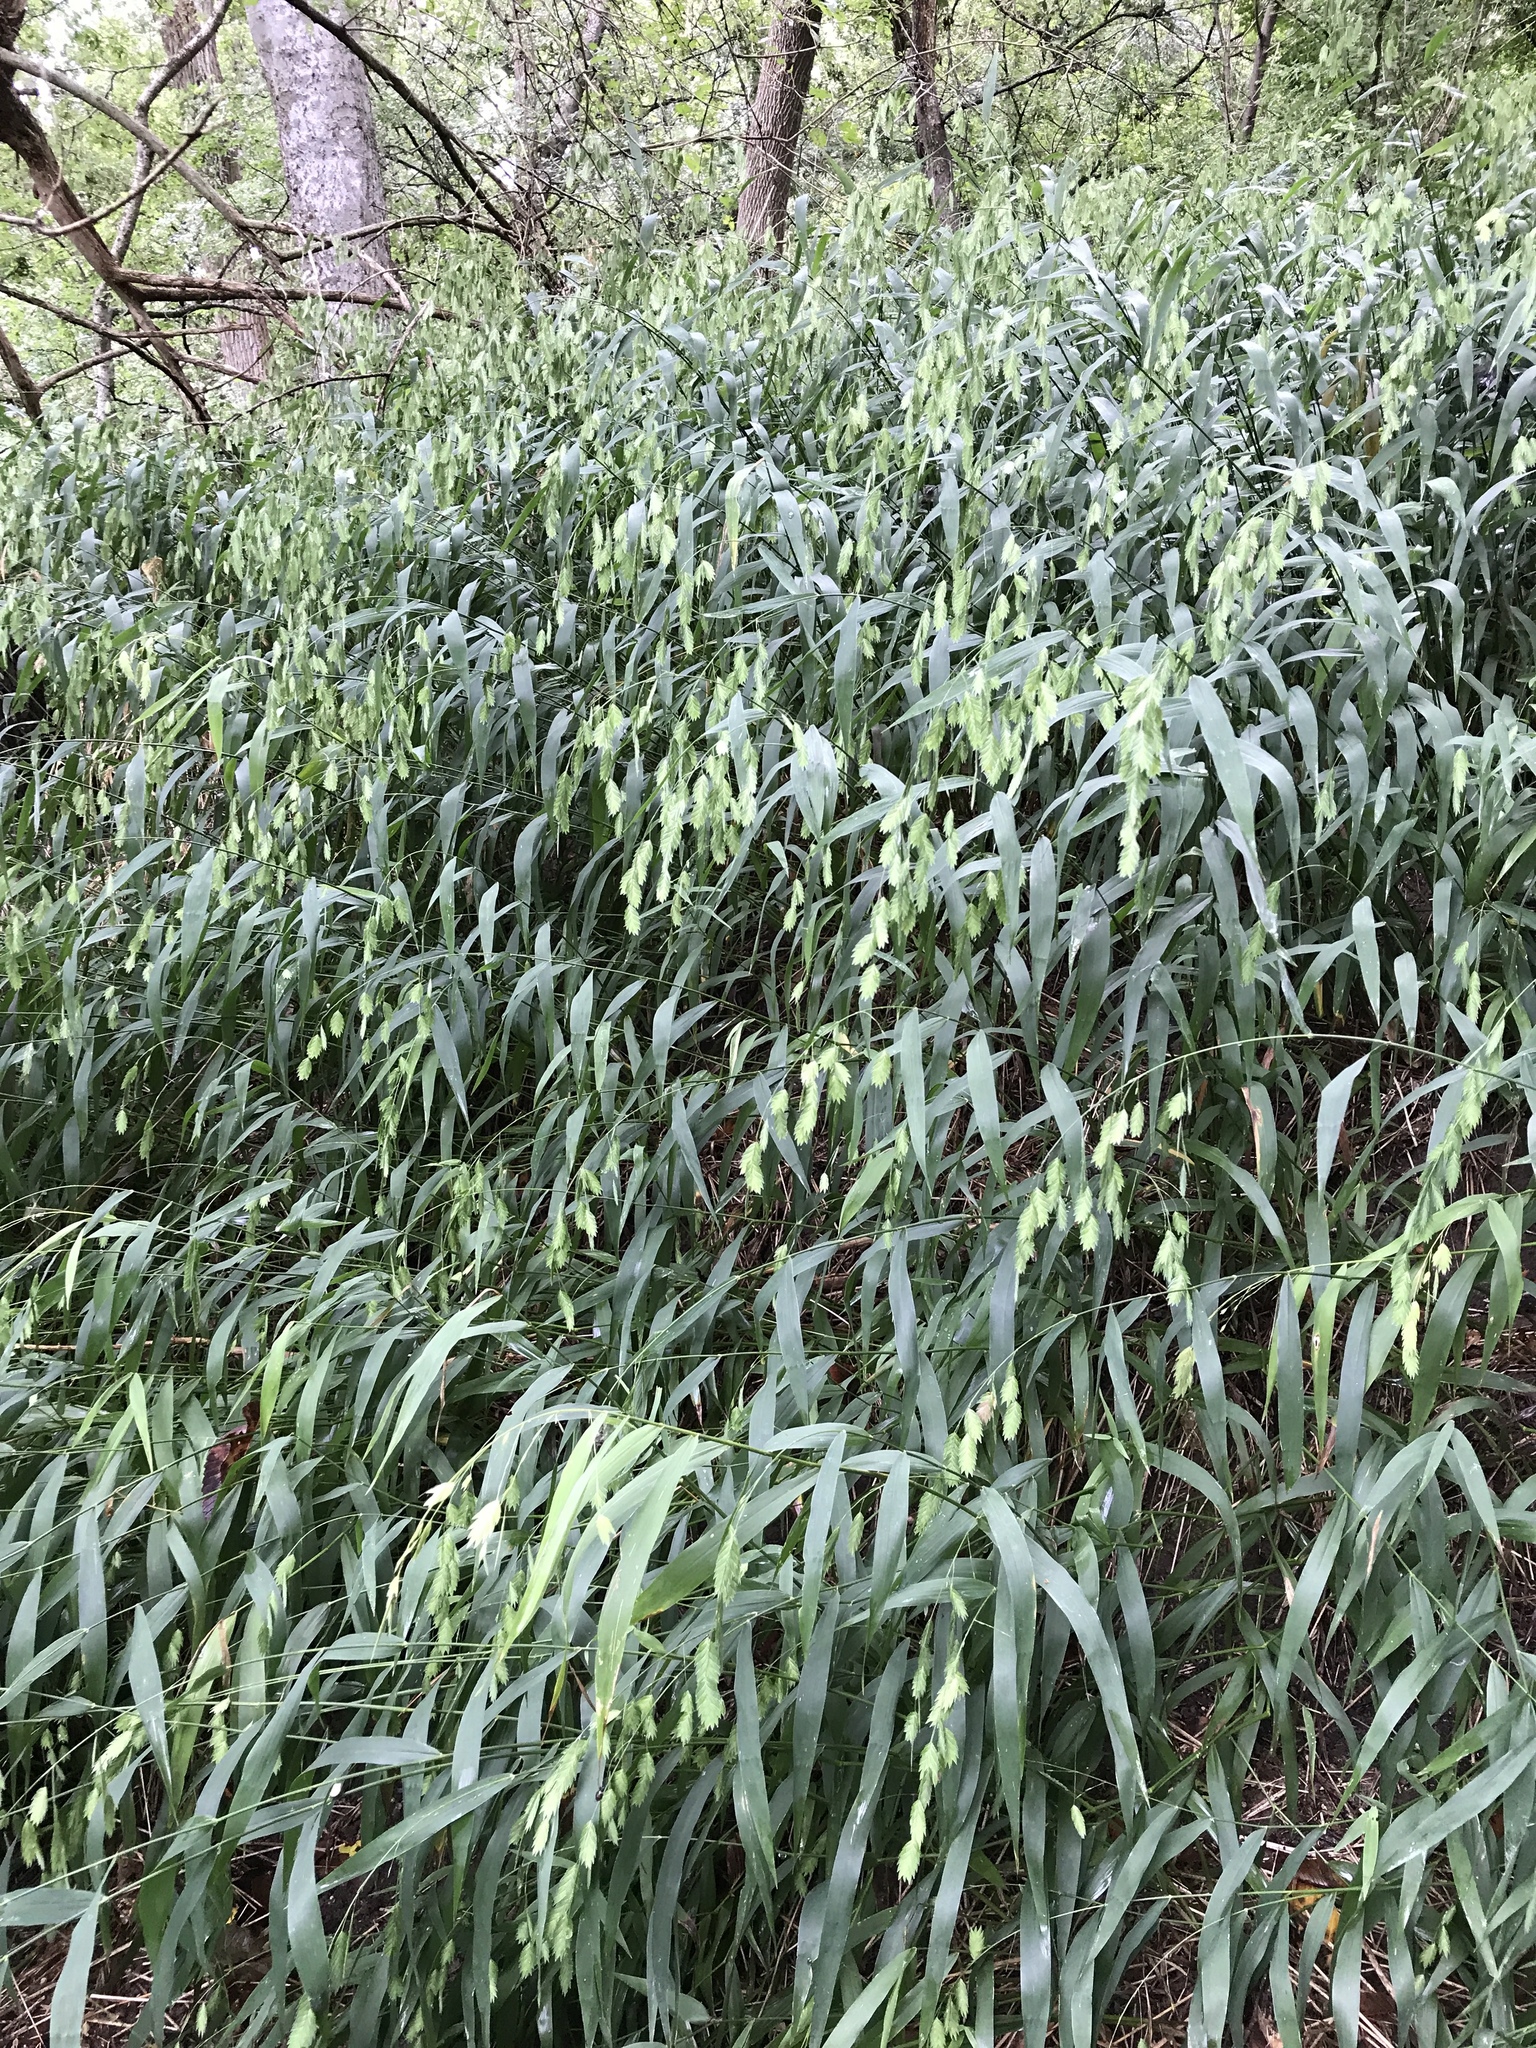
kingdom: Plantae
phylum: Tracheophyta
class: Liliopsida
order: Poales
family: Poaceae
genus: Chasmanthium
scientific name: Chasmanthium latifolium
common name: Broad-leaved chasmanthium
